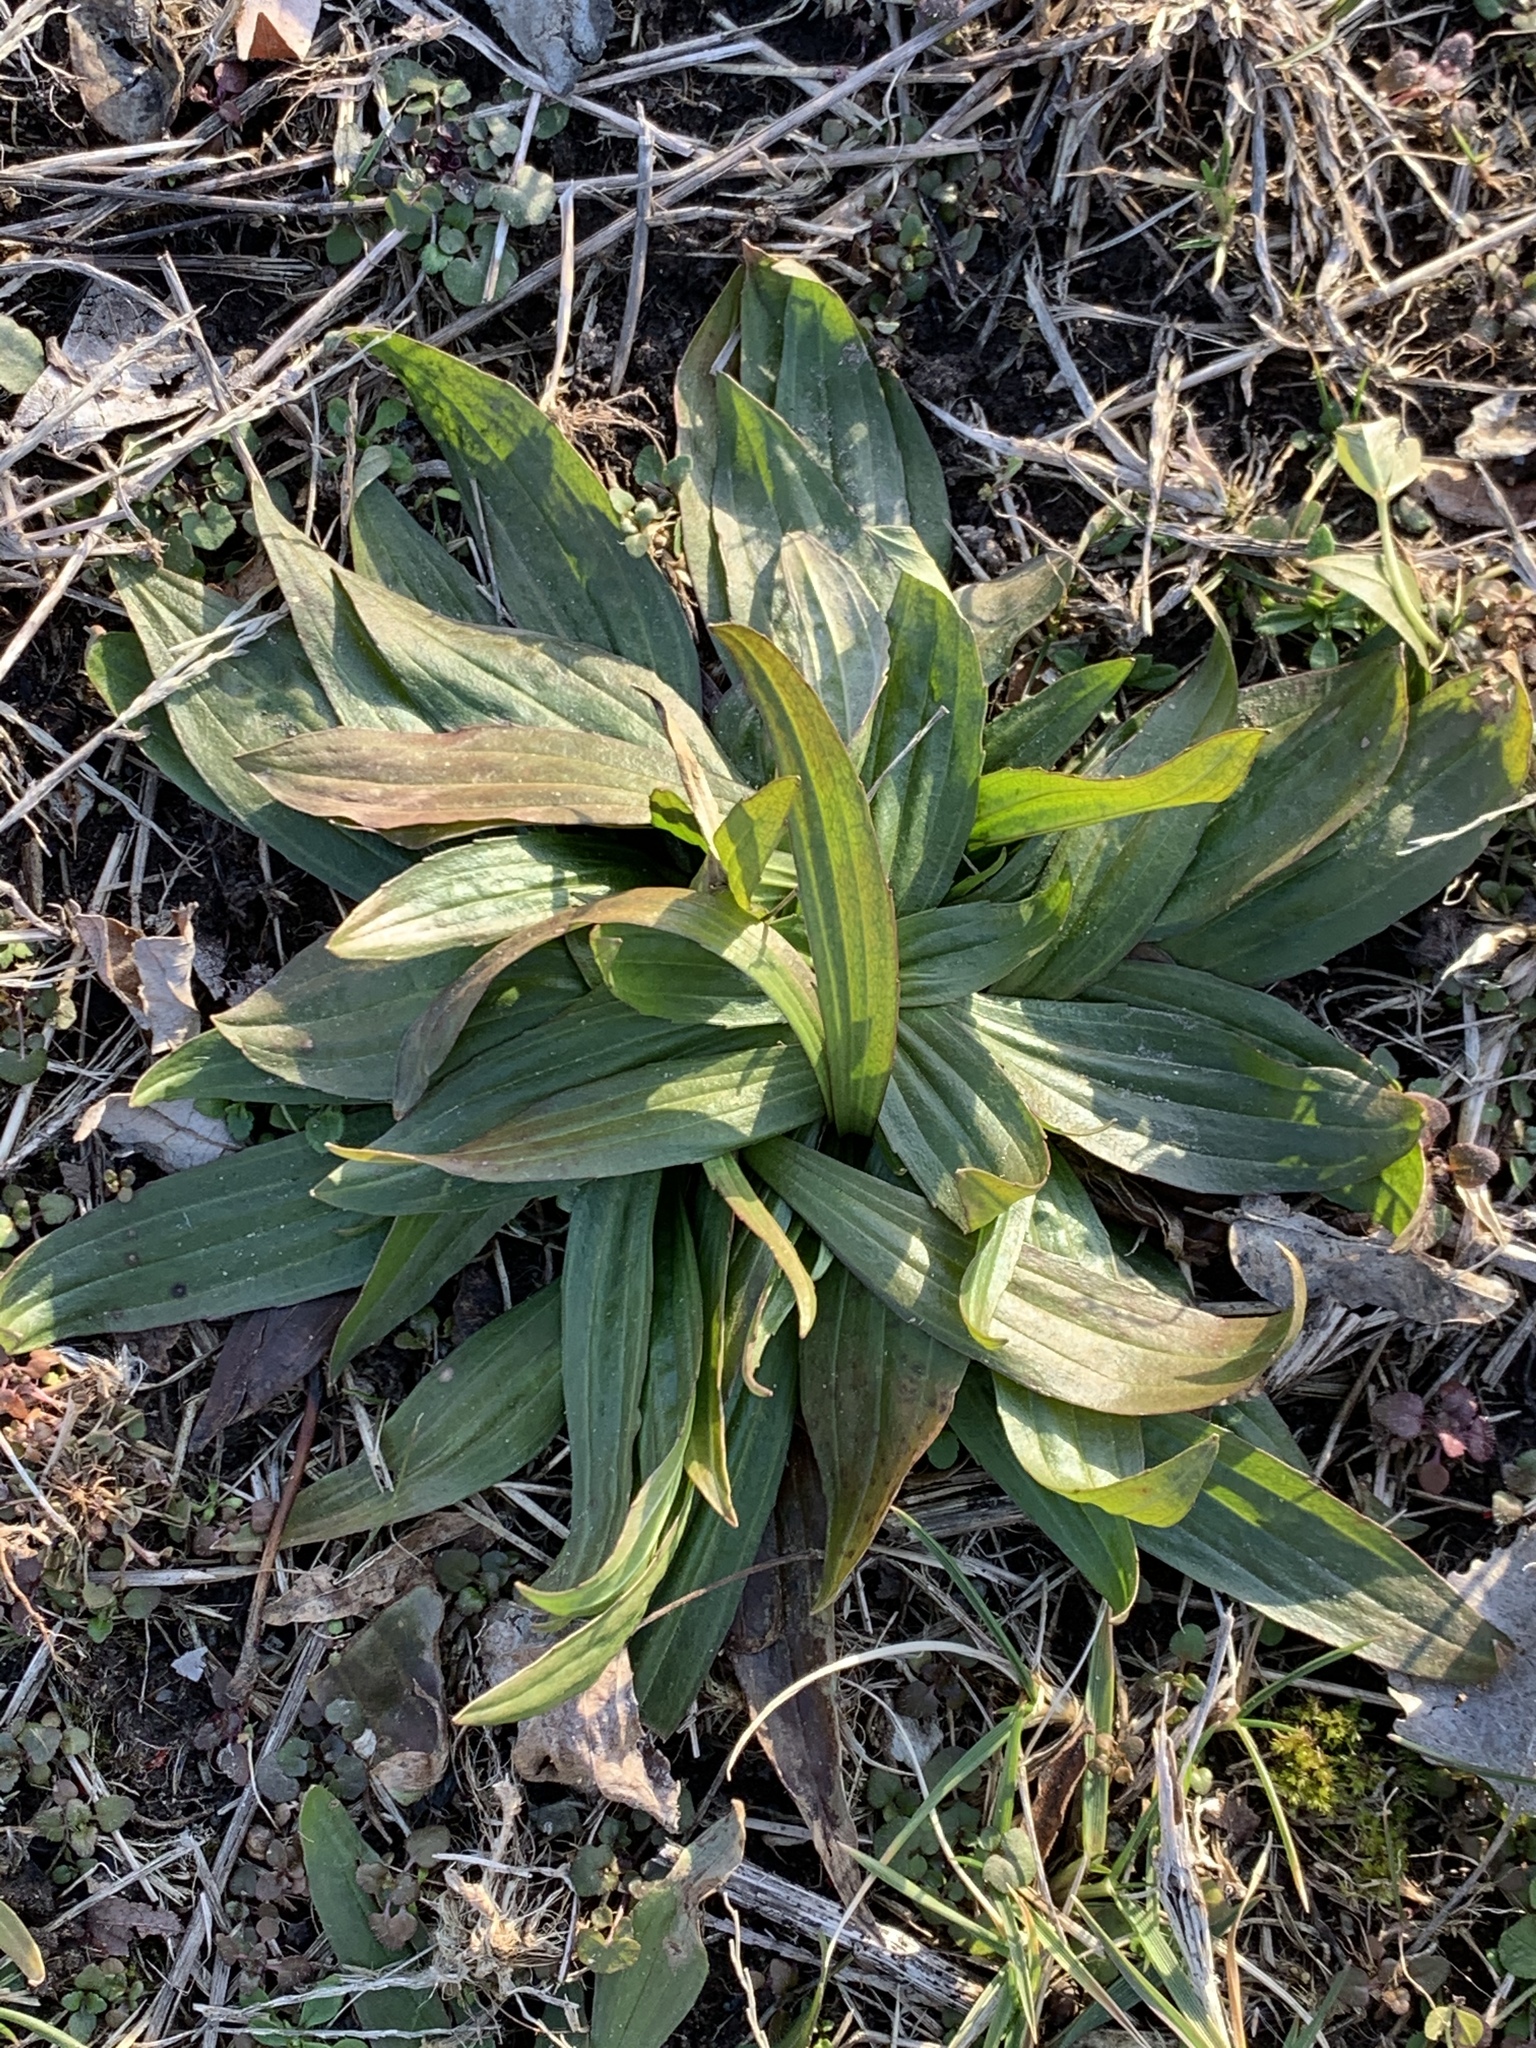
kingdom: Plantae
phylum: Tracheophyta
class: Magnoliopsida
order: Lamiales
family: Plantaginaceae
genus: Plantago
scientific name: Plantago lanceolata
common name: Ribwort plantain
